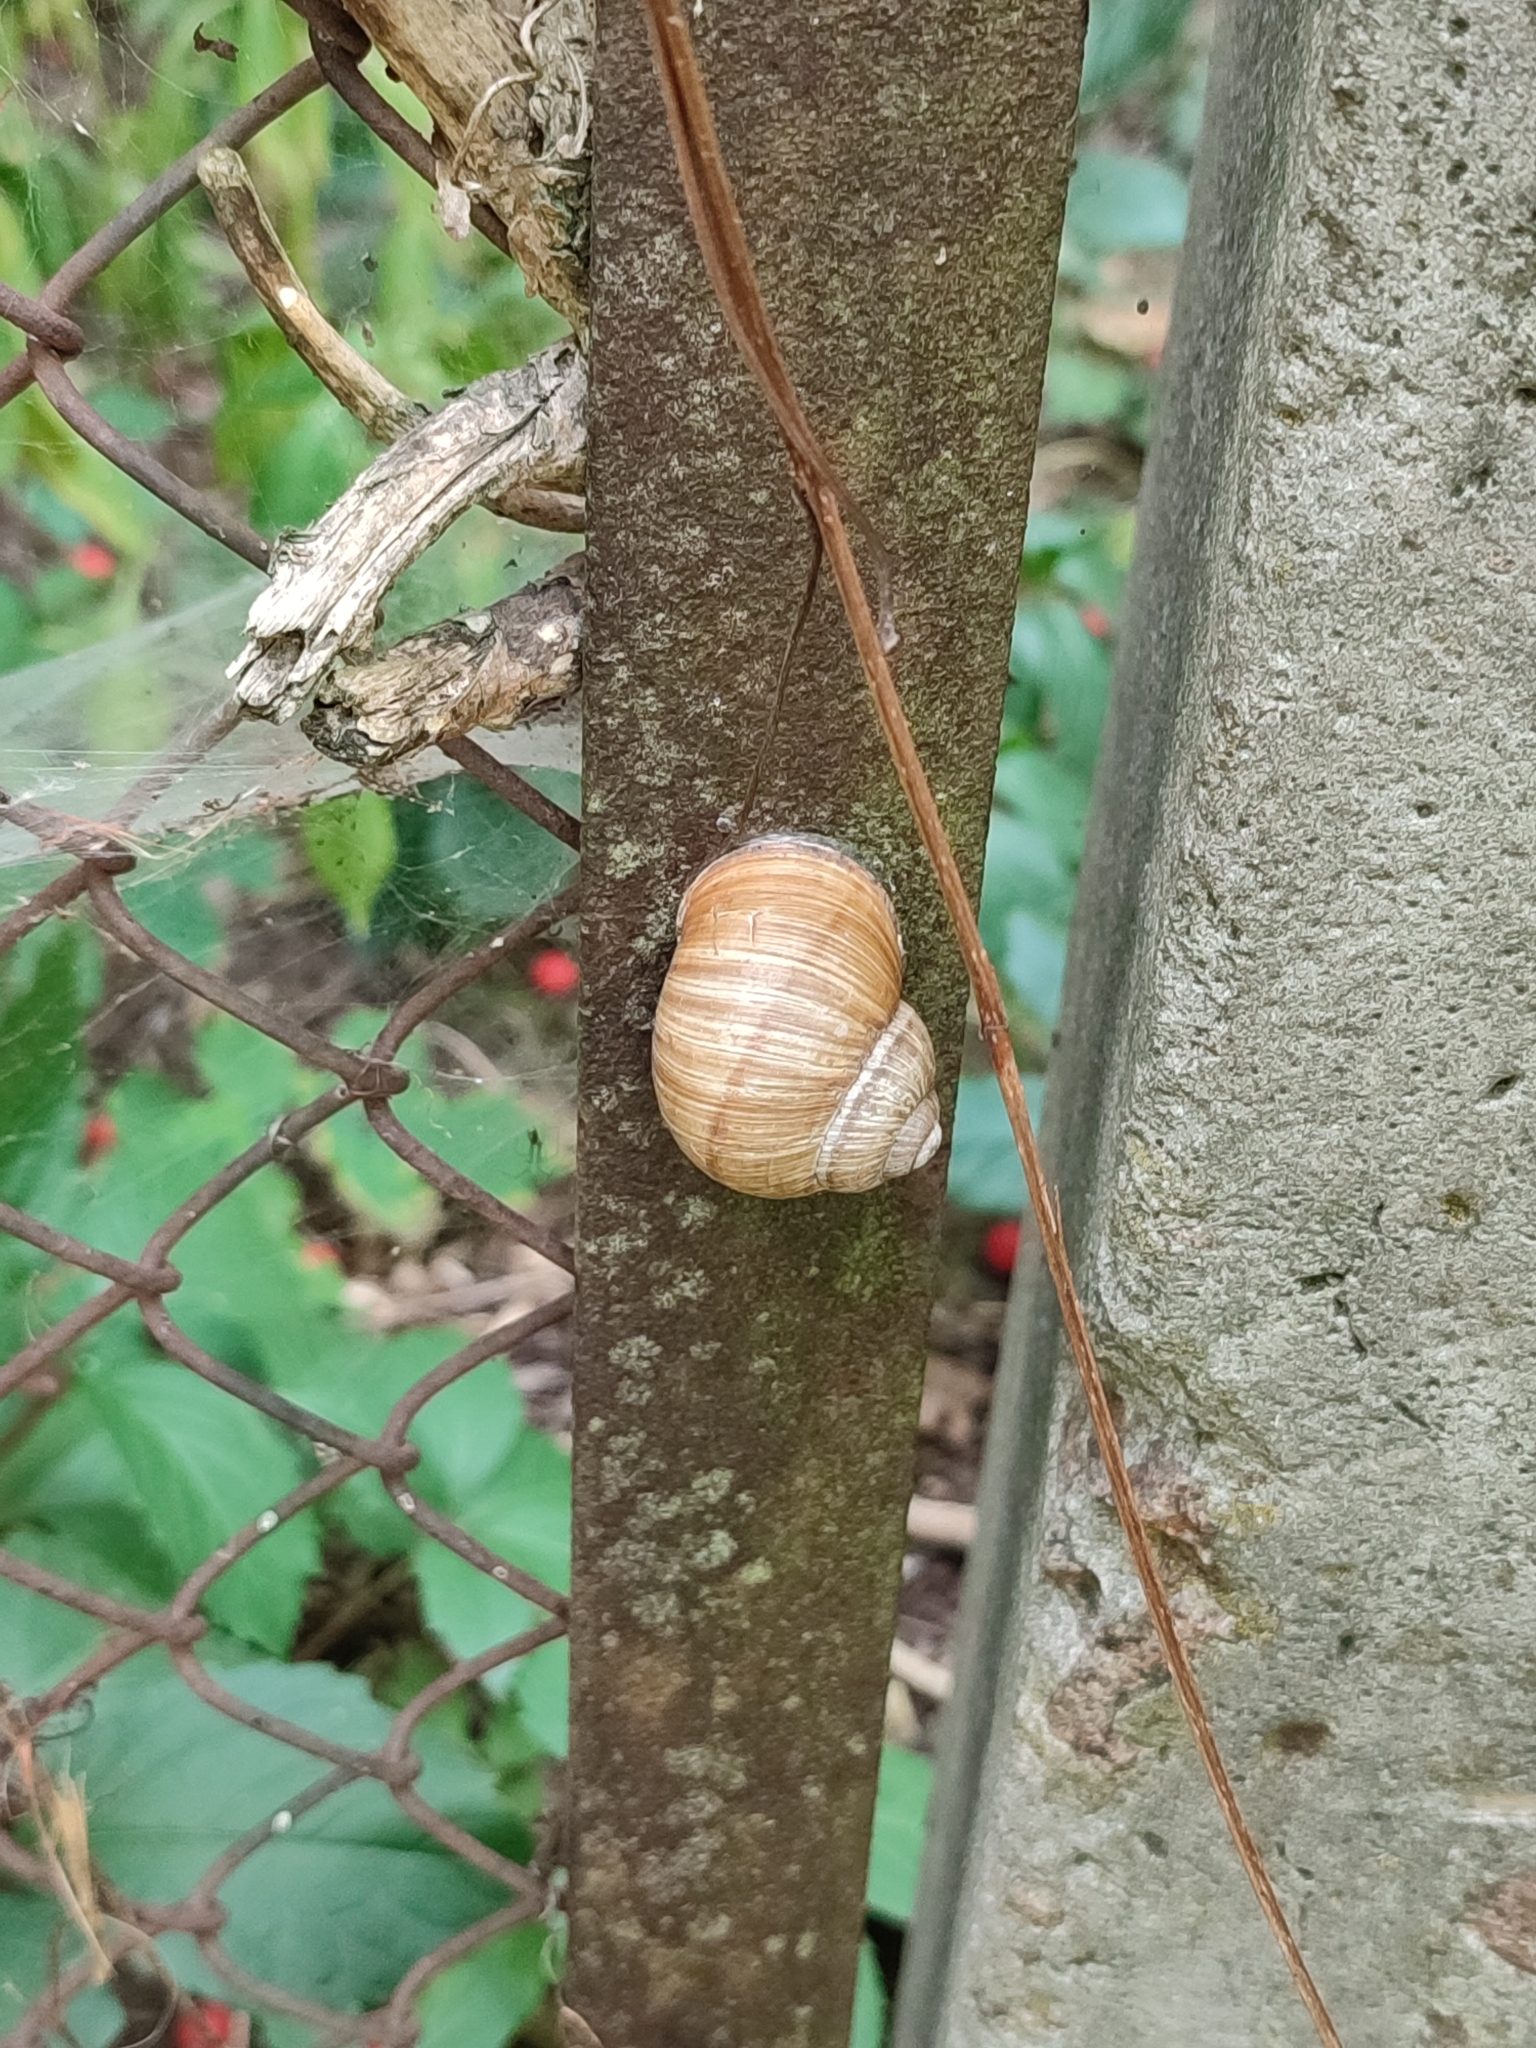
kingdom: Animalia
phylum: Mollusca
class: Gastropoda
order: Stylommatophora
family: Helicidae
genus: Helix
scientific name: Helix pomatia
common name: Roman snail
